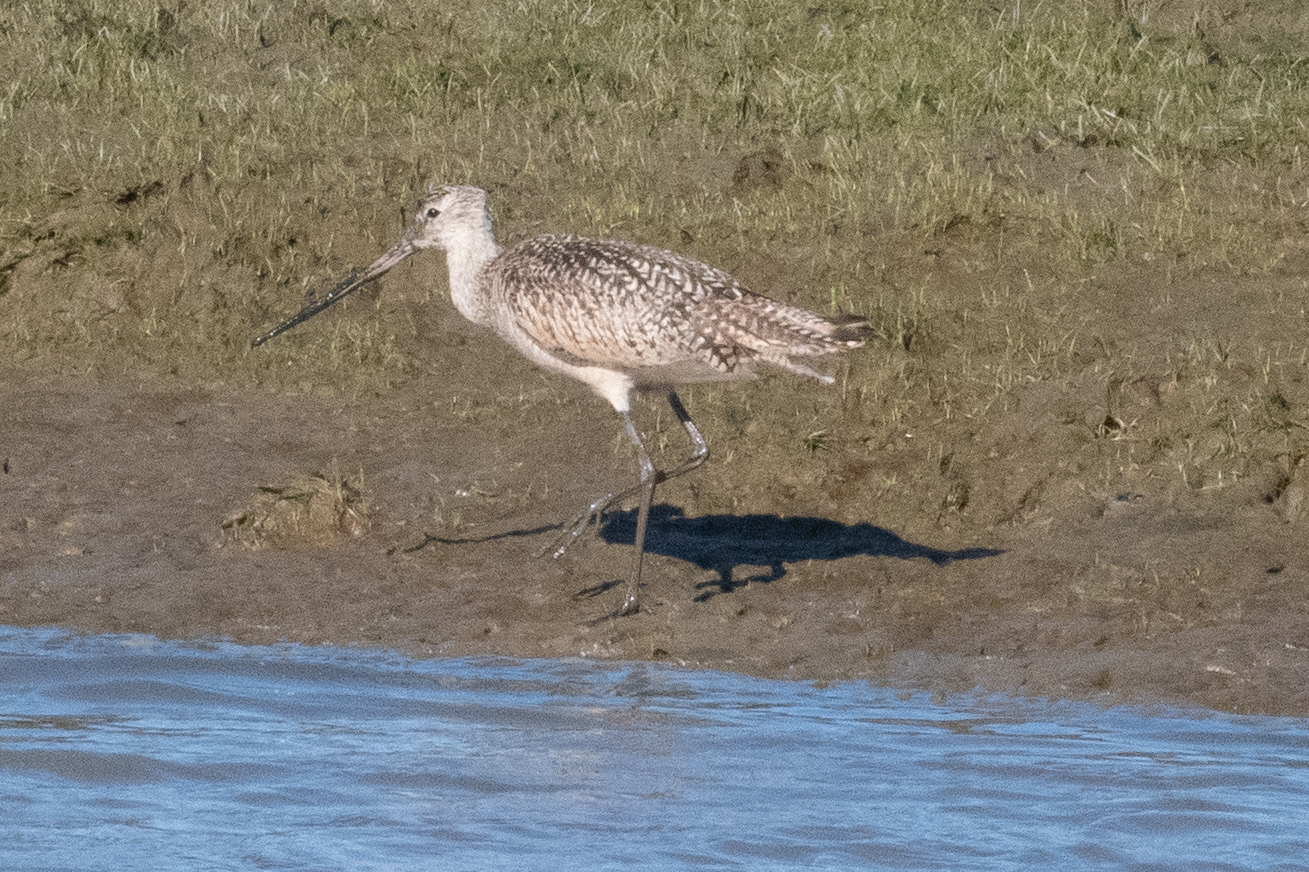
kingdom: Animalia
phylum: Chordata
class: Aves
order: Charadriiformes
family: Scolopacidae
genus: Limosa
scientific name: Limosa fedoa
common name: Marbled godwit
